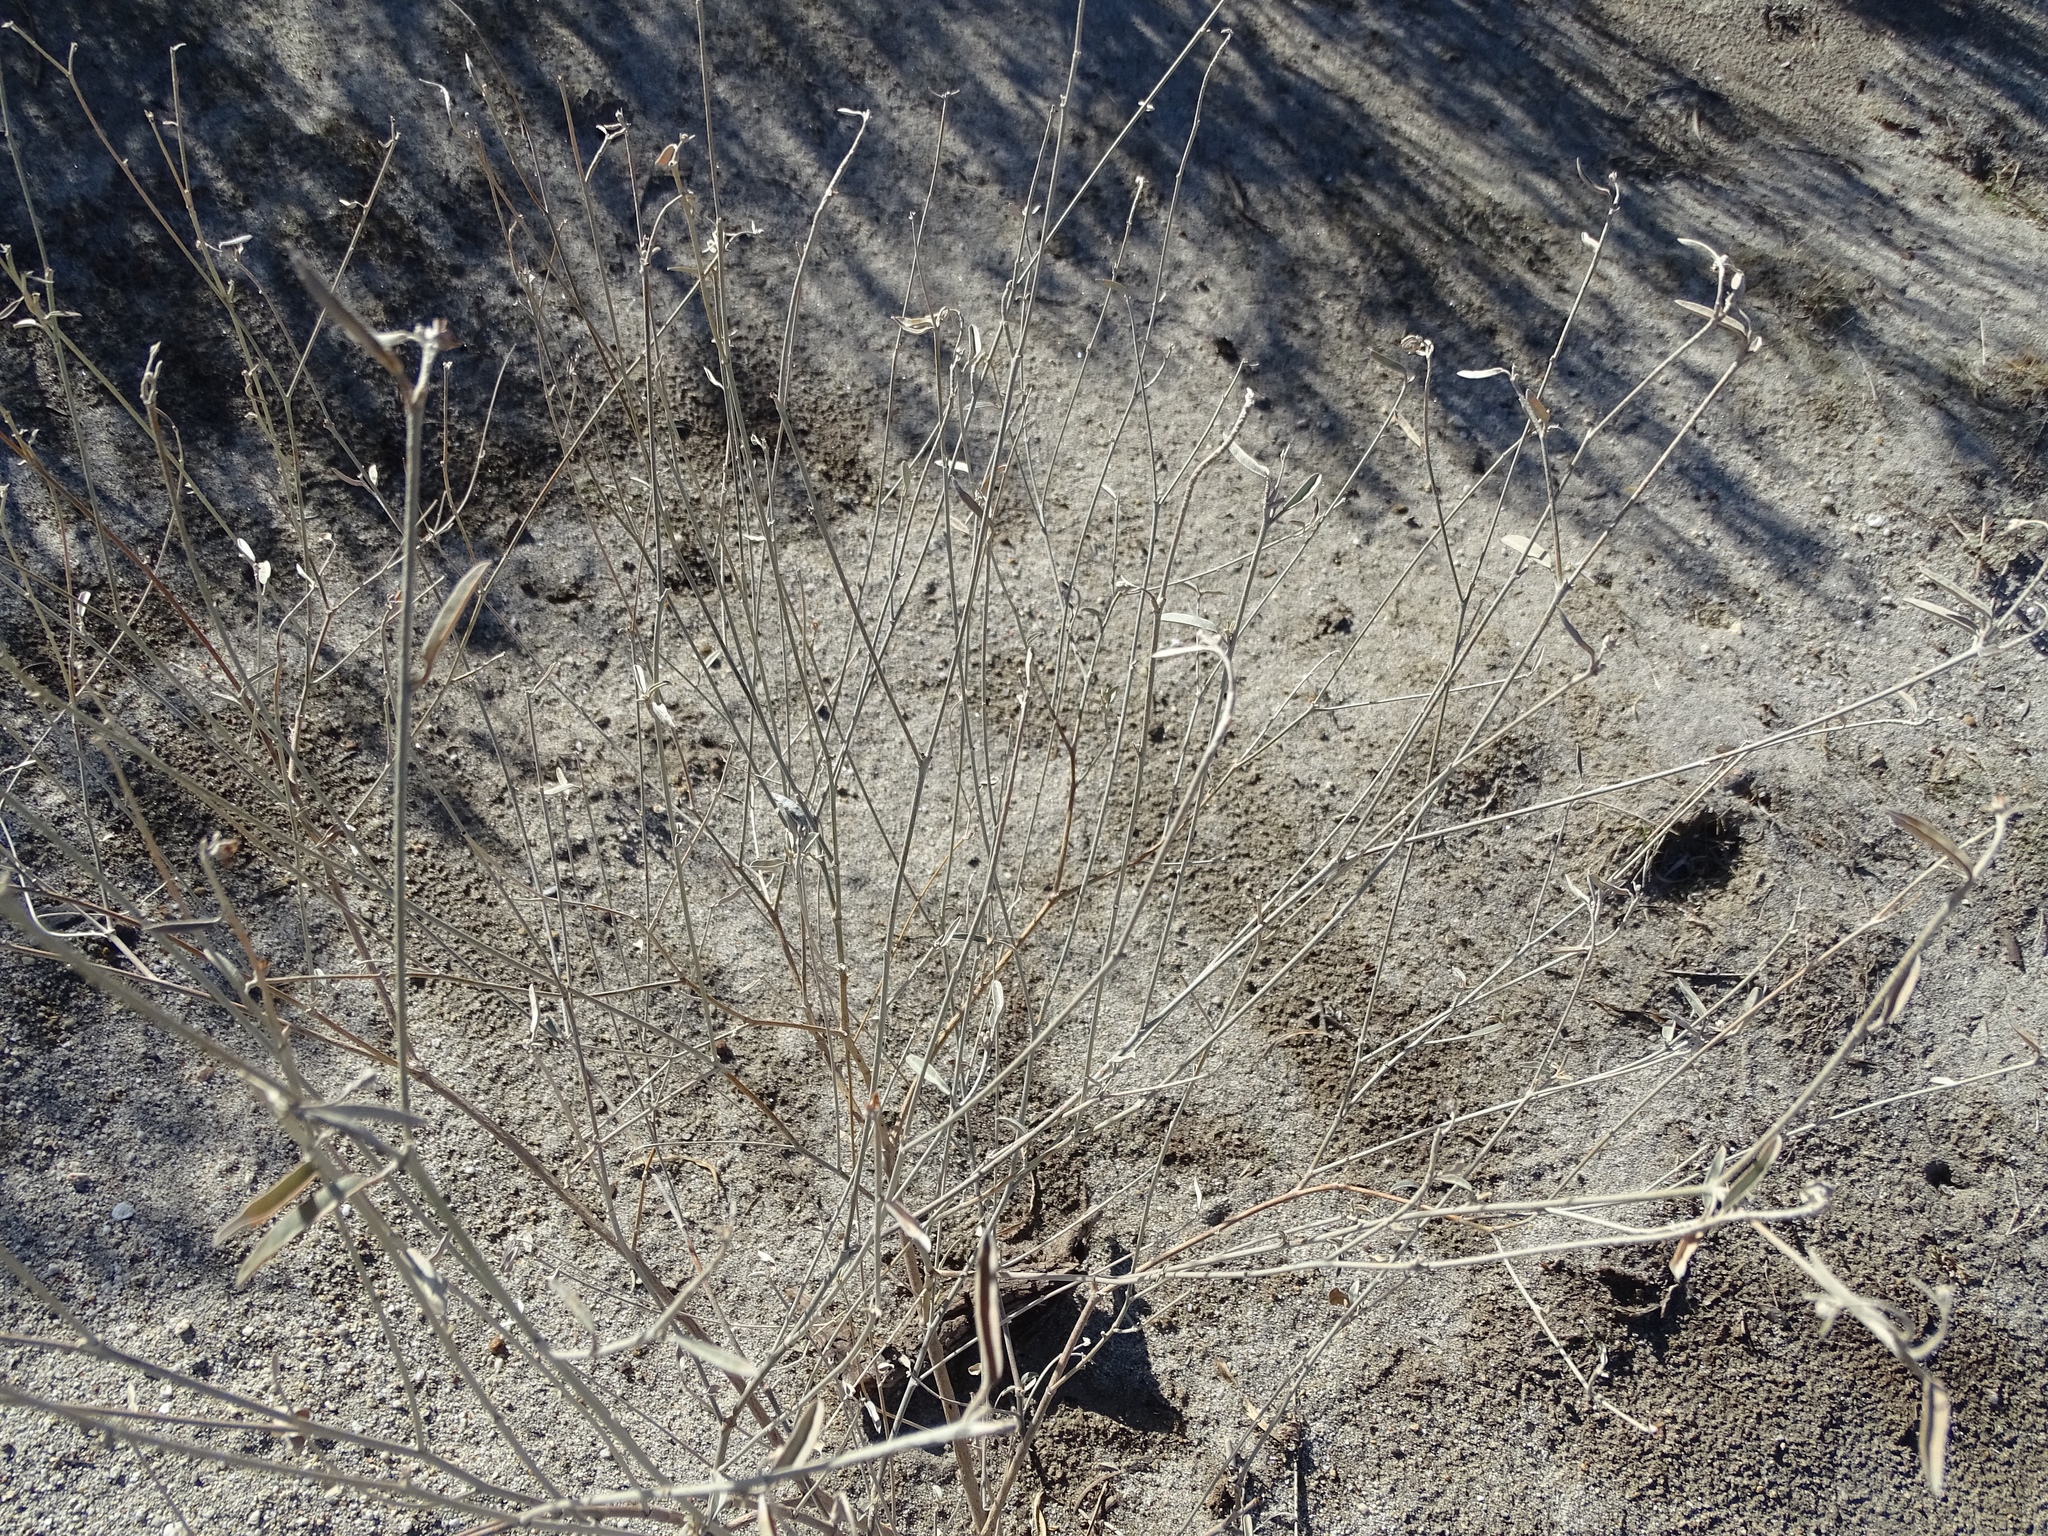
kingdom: Plantae
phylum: Tracheophyta
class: Magnoliopsida
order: Malpighiales
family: Euphorbiaceae
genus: Croton
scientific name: Croton californicus
